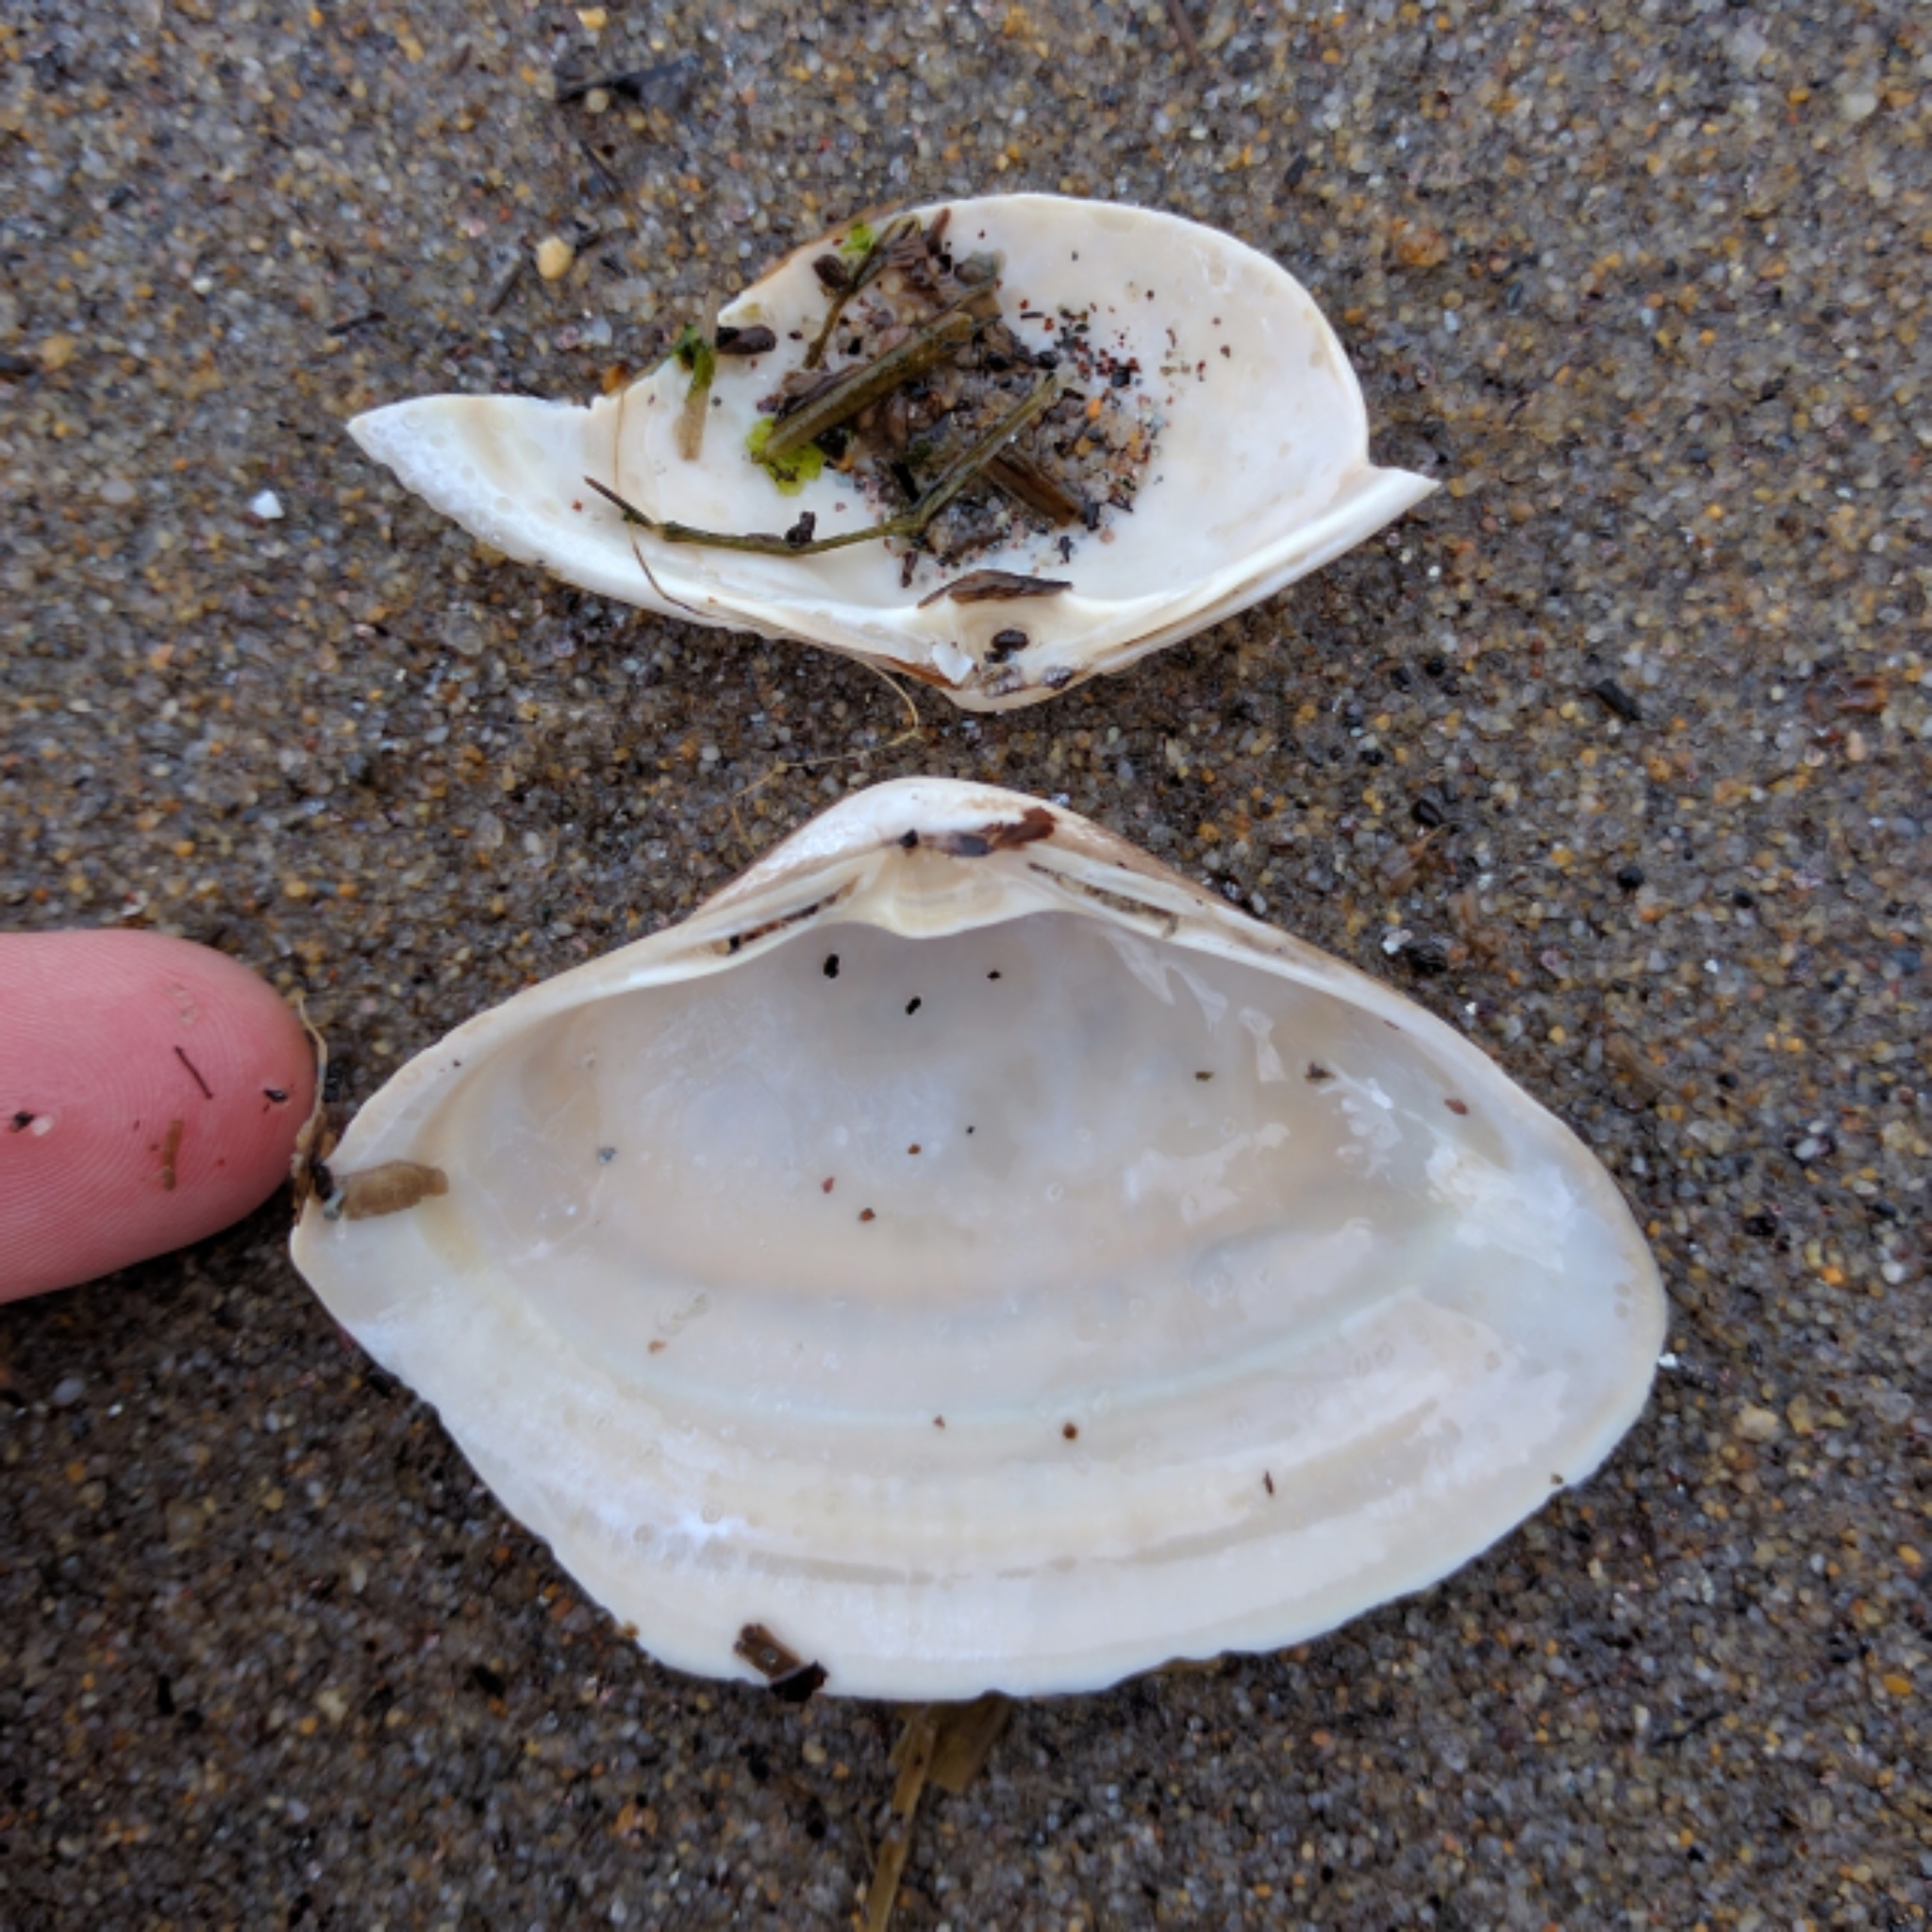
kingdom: Animalia
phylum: Mollusca
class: Bivalvia
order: Venerida
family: Mactridae
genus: Spisula
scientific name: Spisula solidissima
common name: Atlantic surf clam
